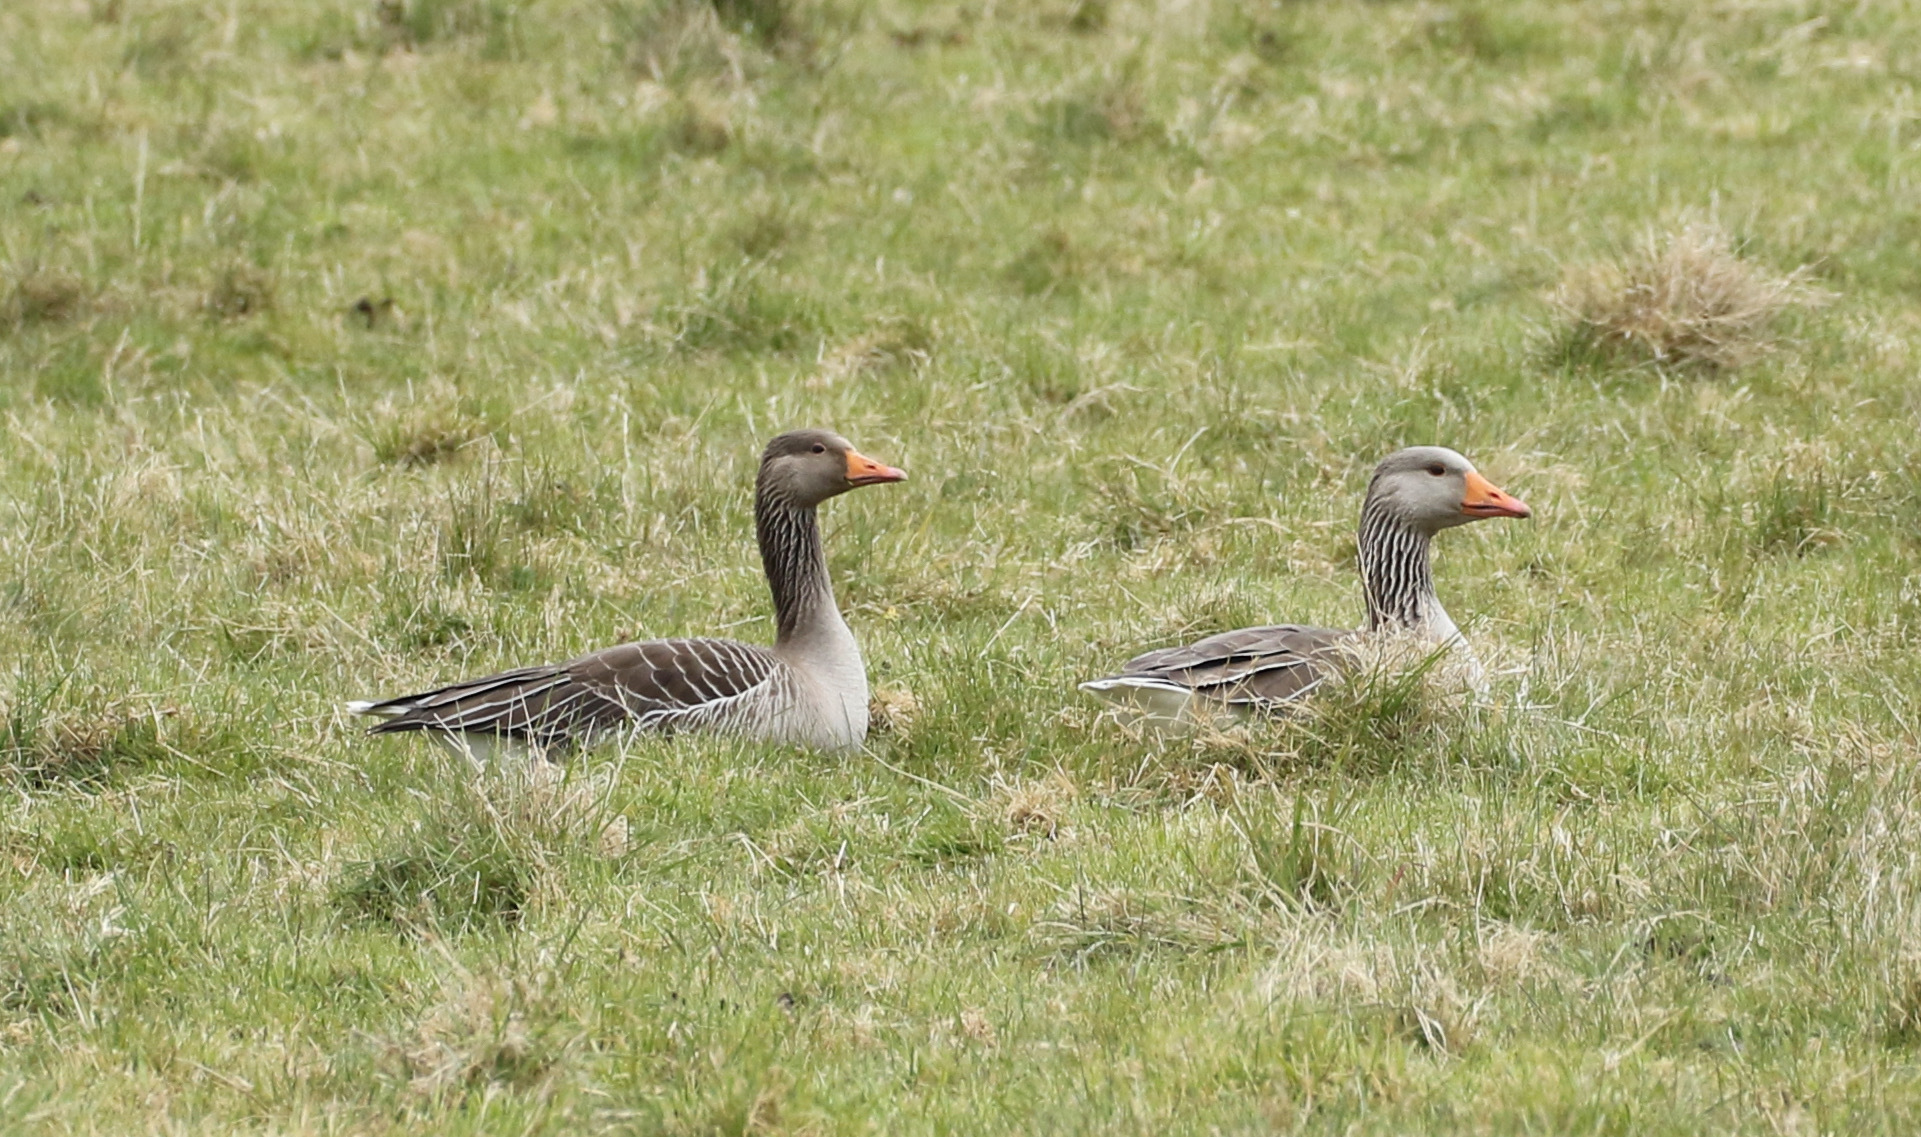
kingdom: Animalia
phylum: Chordata
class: Aves
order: Anseriformes
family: Anatidae
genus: Anser
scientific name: Anser anser
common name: Greylag goose
